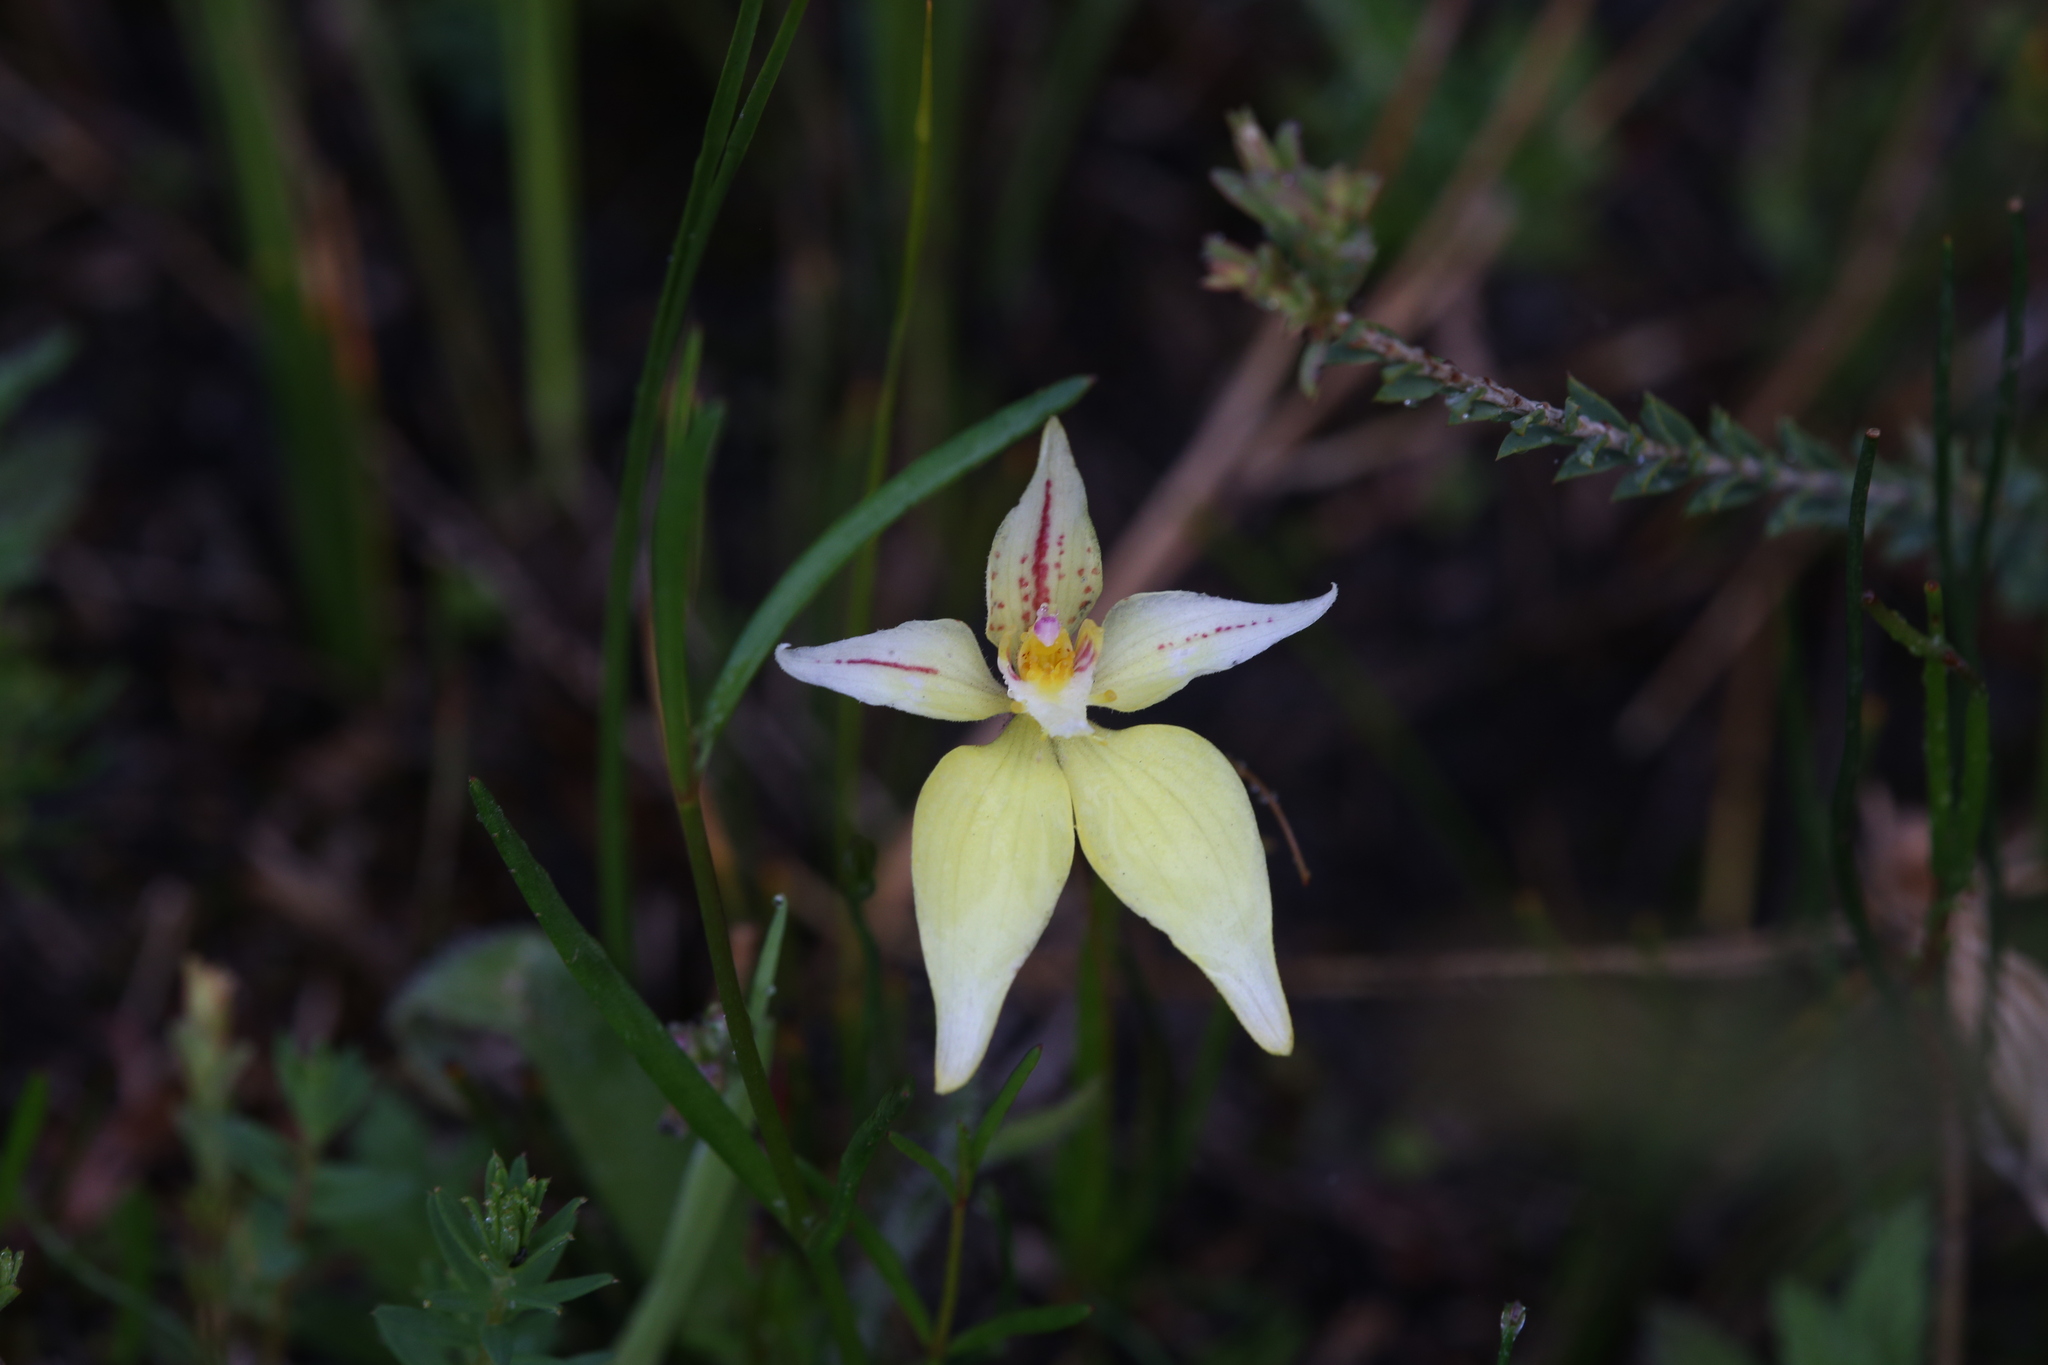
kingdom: Plantae
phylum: Tracheophyta
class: Liliopsida
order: Asparagales
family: Orchidaceae
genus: Caladenia
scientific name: Caladenia flava
